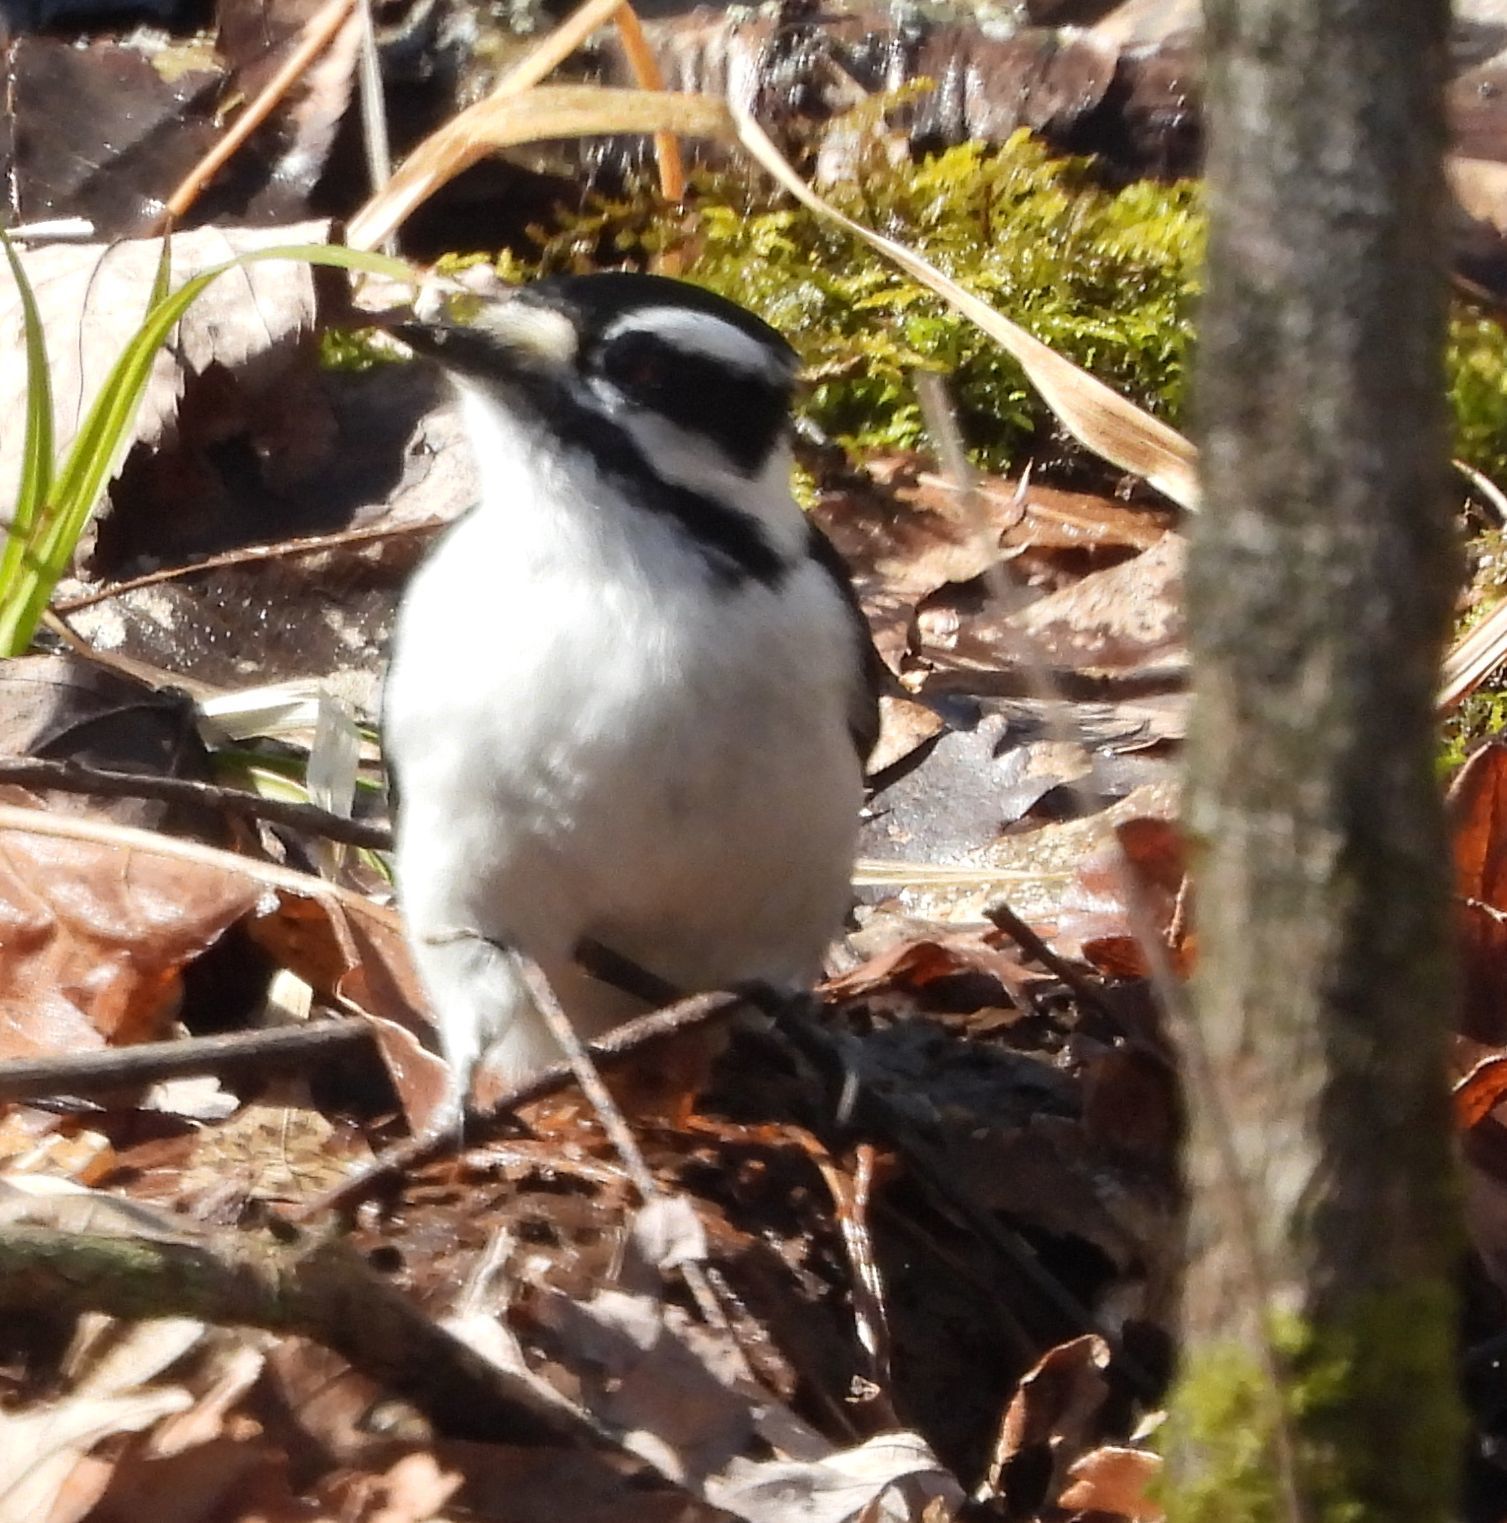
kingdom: Animalia
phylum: Chordata
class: Aves
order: Piciformes
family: Picidae
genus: Dryobates
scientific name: Dryobates pubescens
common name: Downy woodpecker
